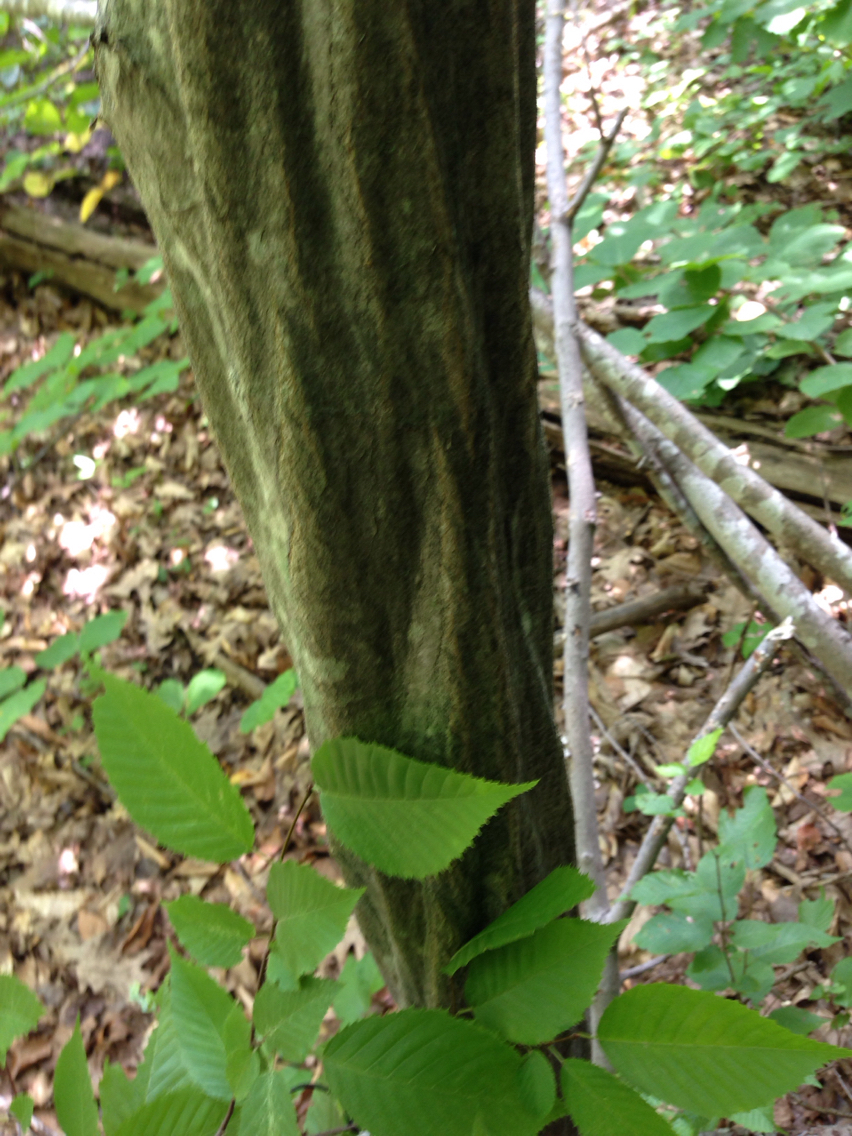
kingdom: Plantae
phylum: Tracheophyta
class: Magnoliopsida
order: Fagales
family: Betulaceae
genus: Carpinus
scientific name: Carpinus caroliniana
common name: American hornbeam
